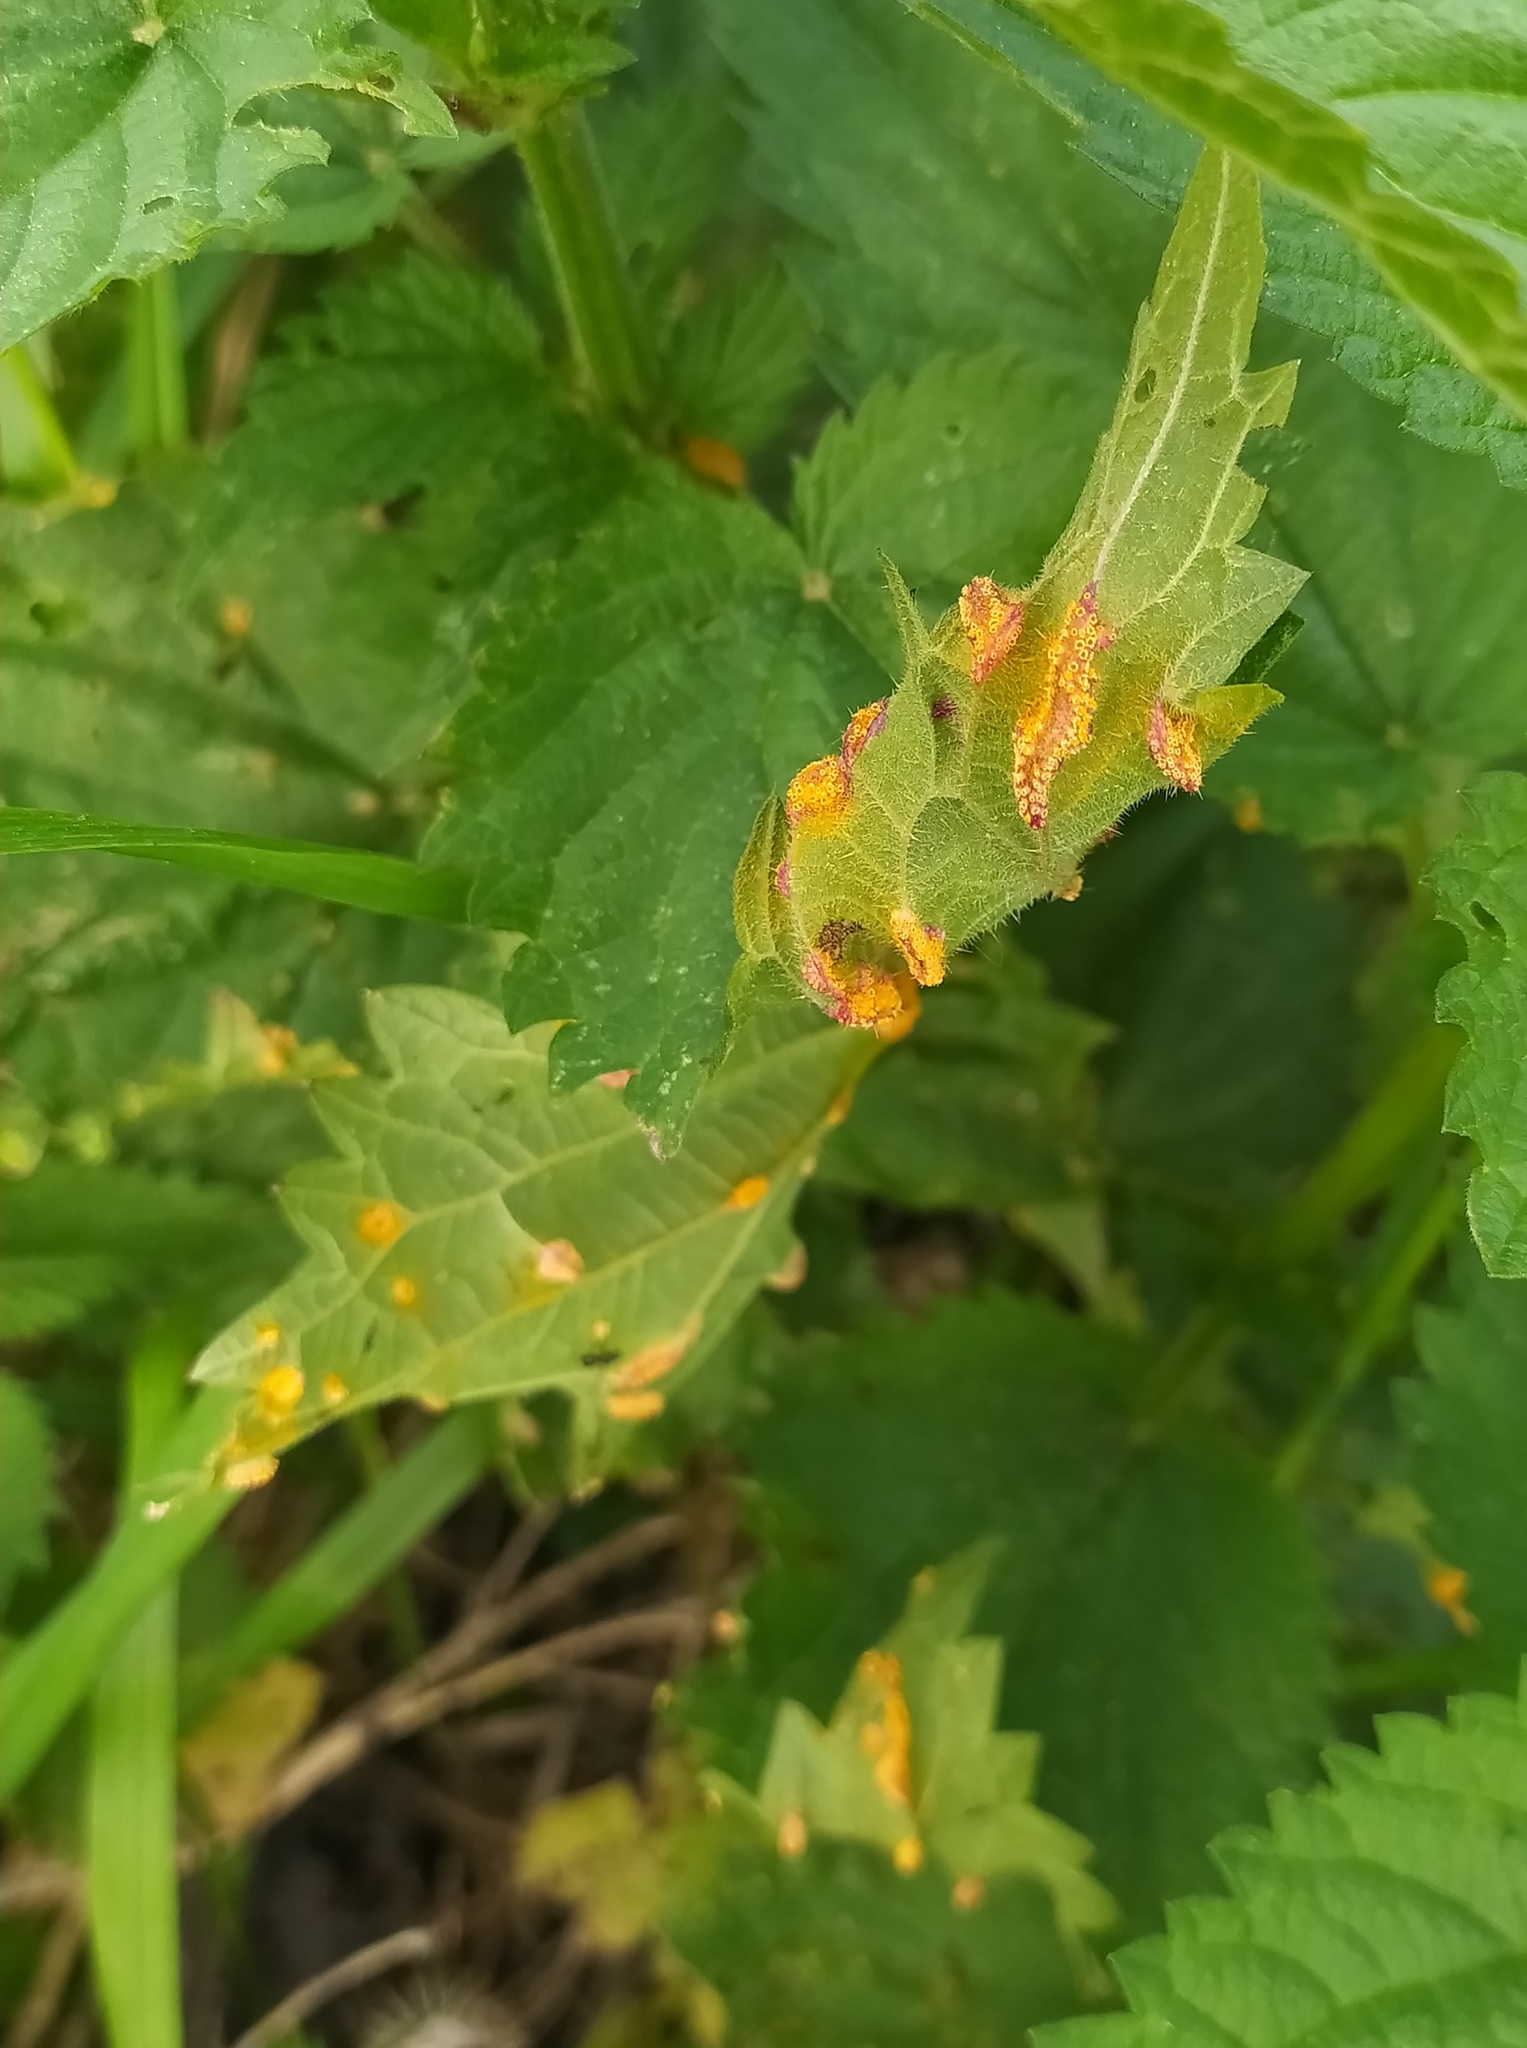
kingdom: Fungi
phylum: Basidiomycota
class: Pucciniomycetes
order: Pucciniales
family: Pucciniaceae
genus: Puccinia
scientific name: Puccinia urticata
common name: Nettle clustercup rust fungus
